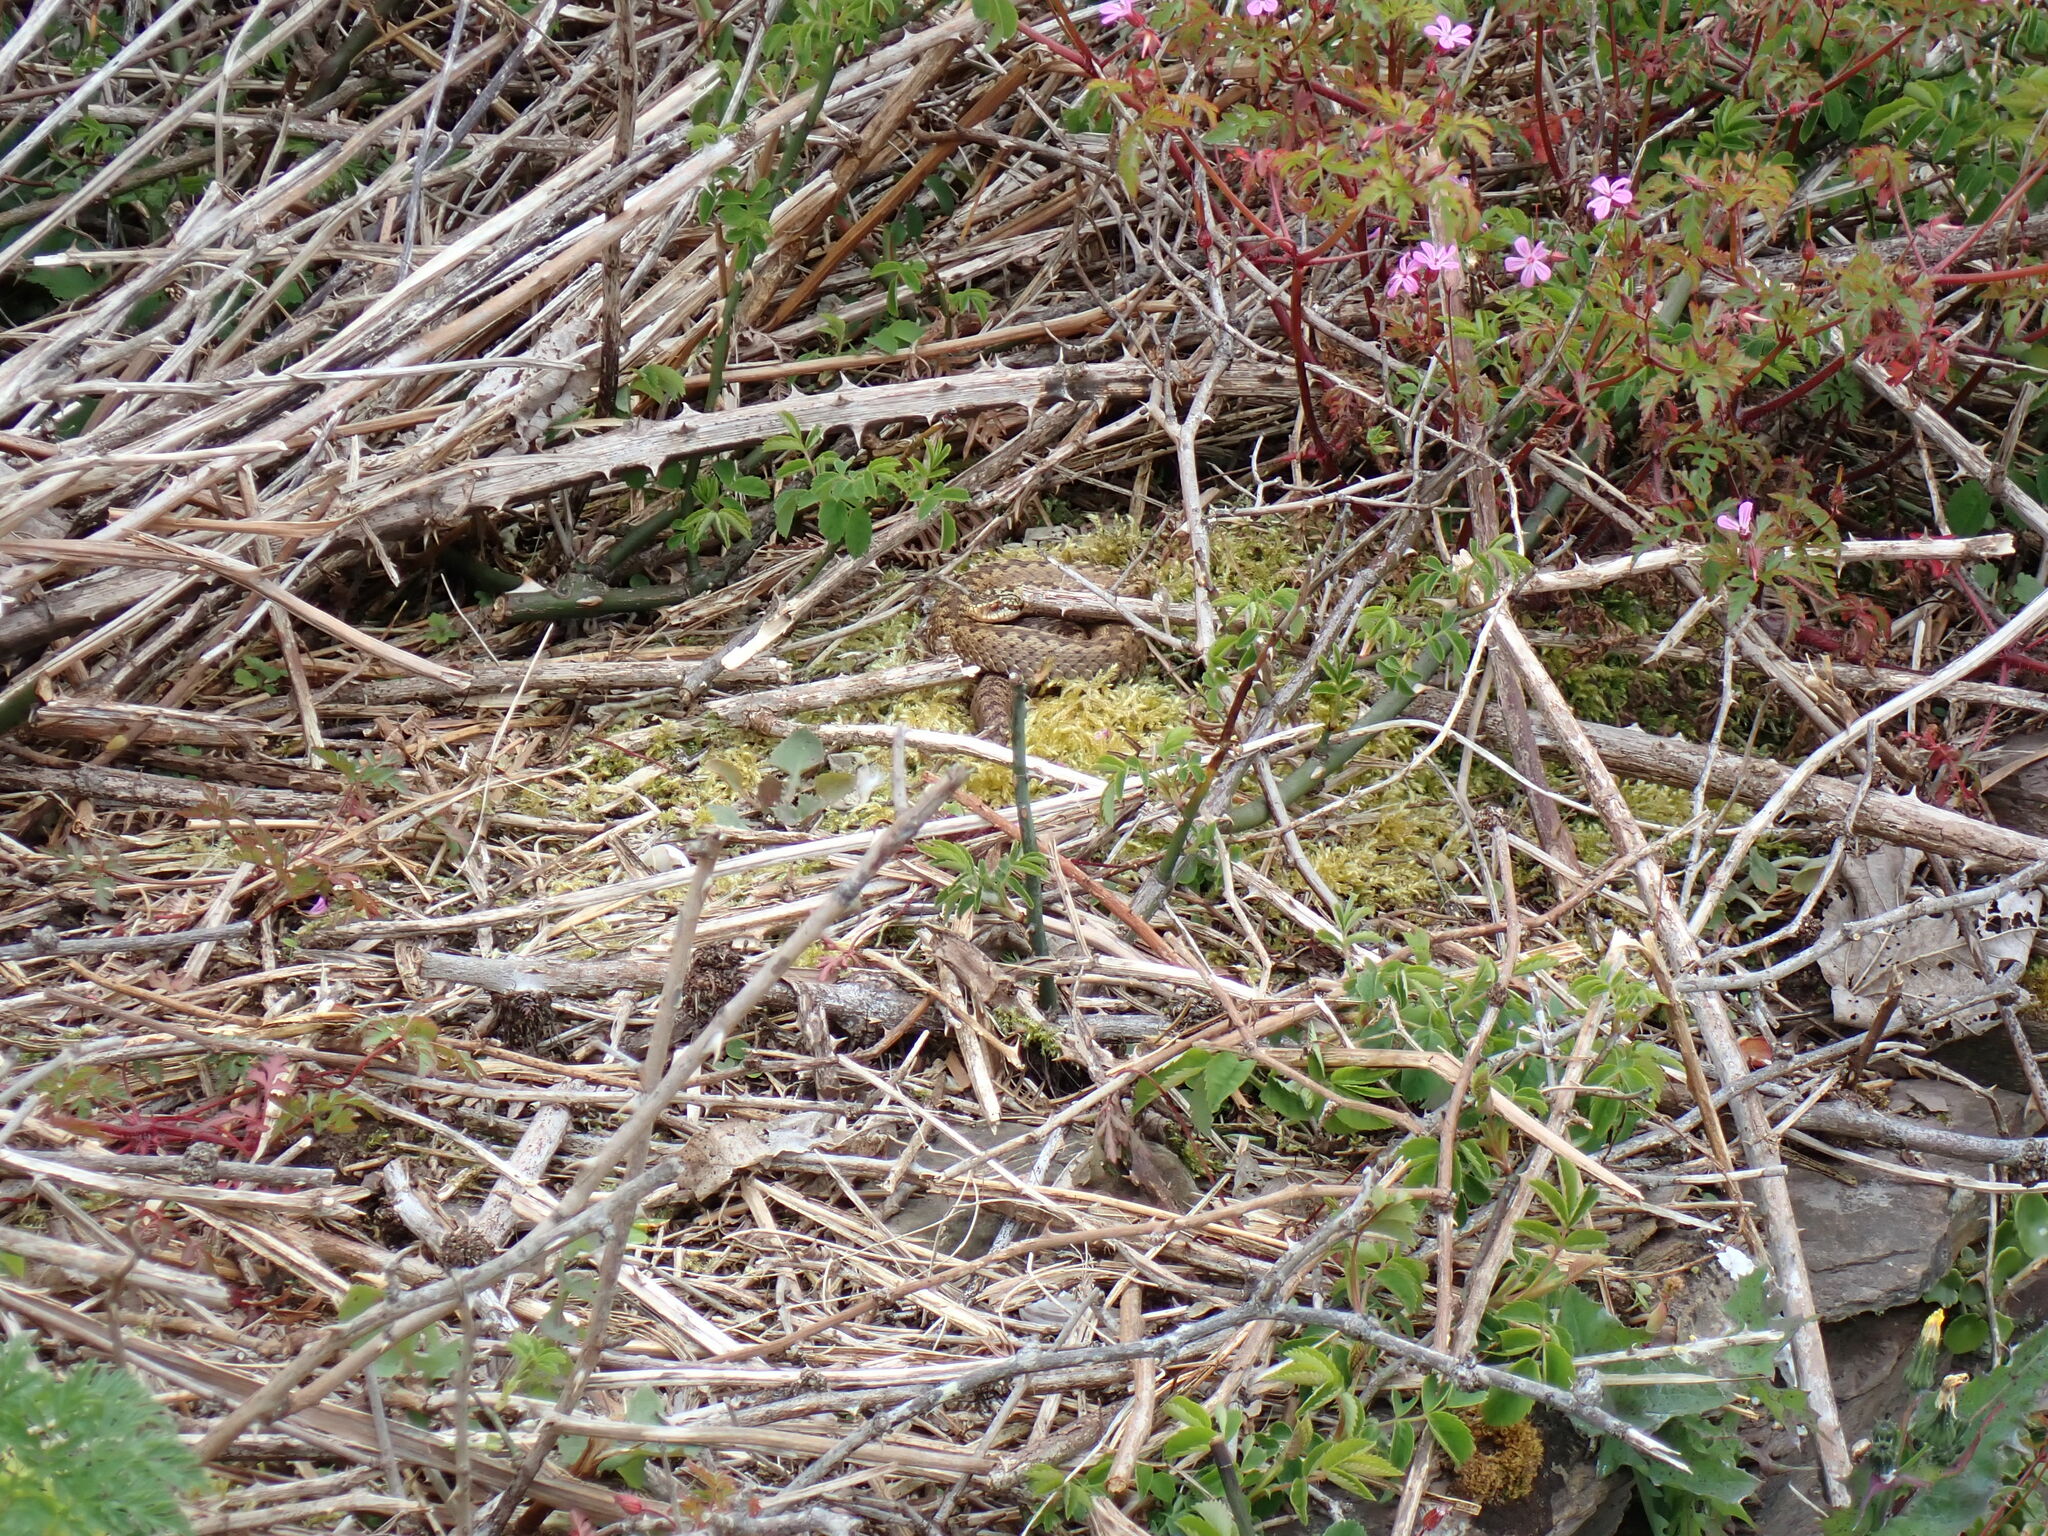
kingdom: Animalia
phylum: Chordata
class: Squamata
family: Viperidae
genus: Vipera
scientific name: Vipera berus
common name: Adder
